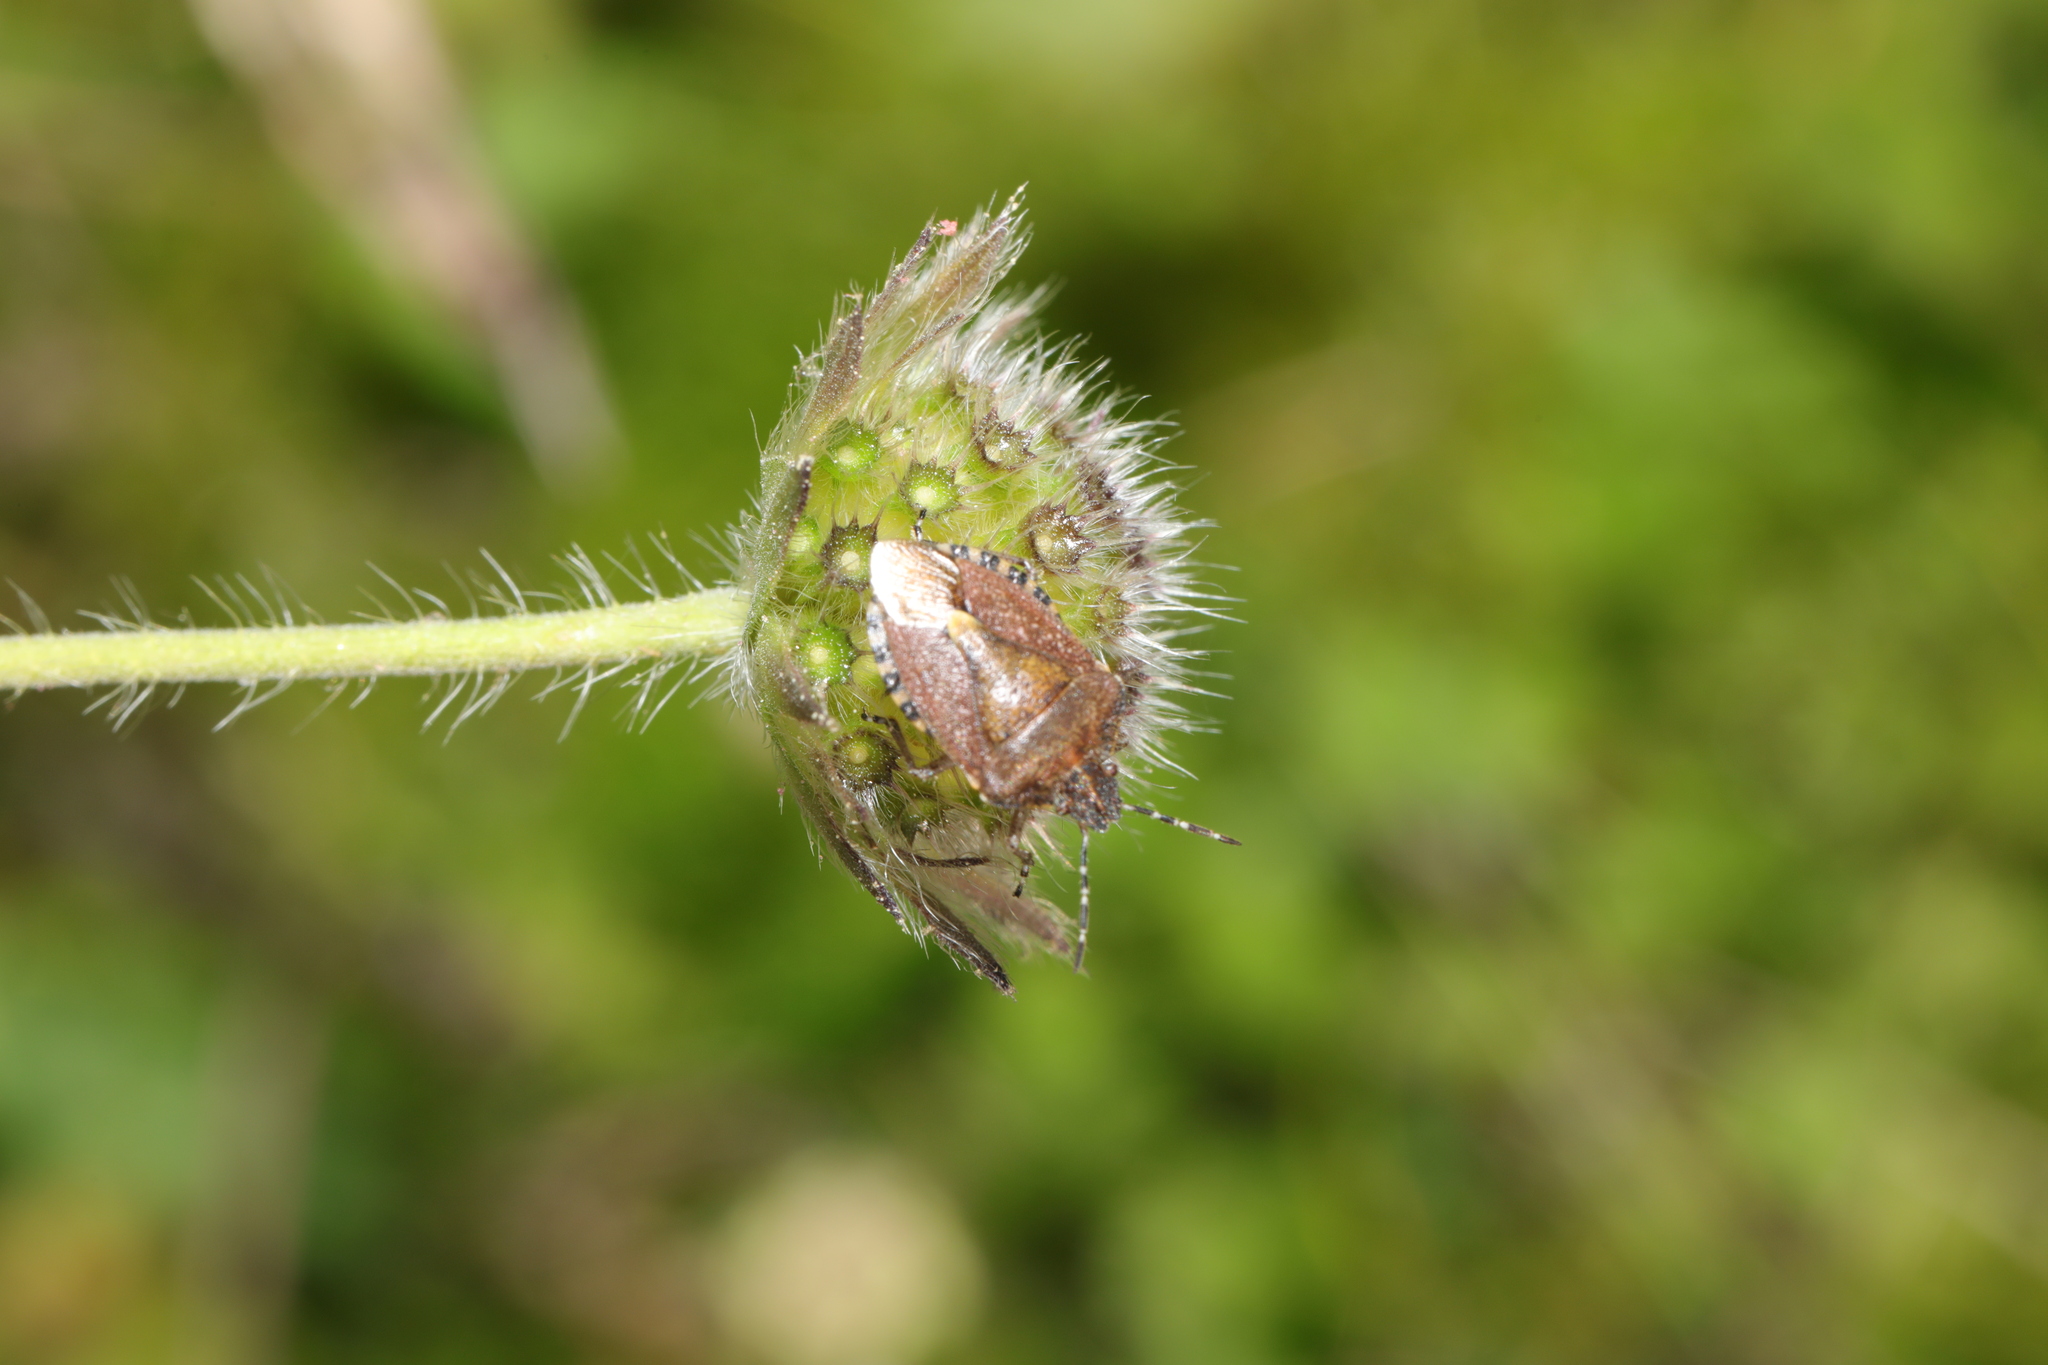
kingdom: Animalia
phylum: Arthropoda
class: Insecta
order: Hemiptera
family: Pentatomidae
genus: Dolycoris
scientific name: Dolycoris baccarum
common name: Sloe bug
